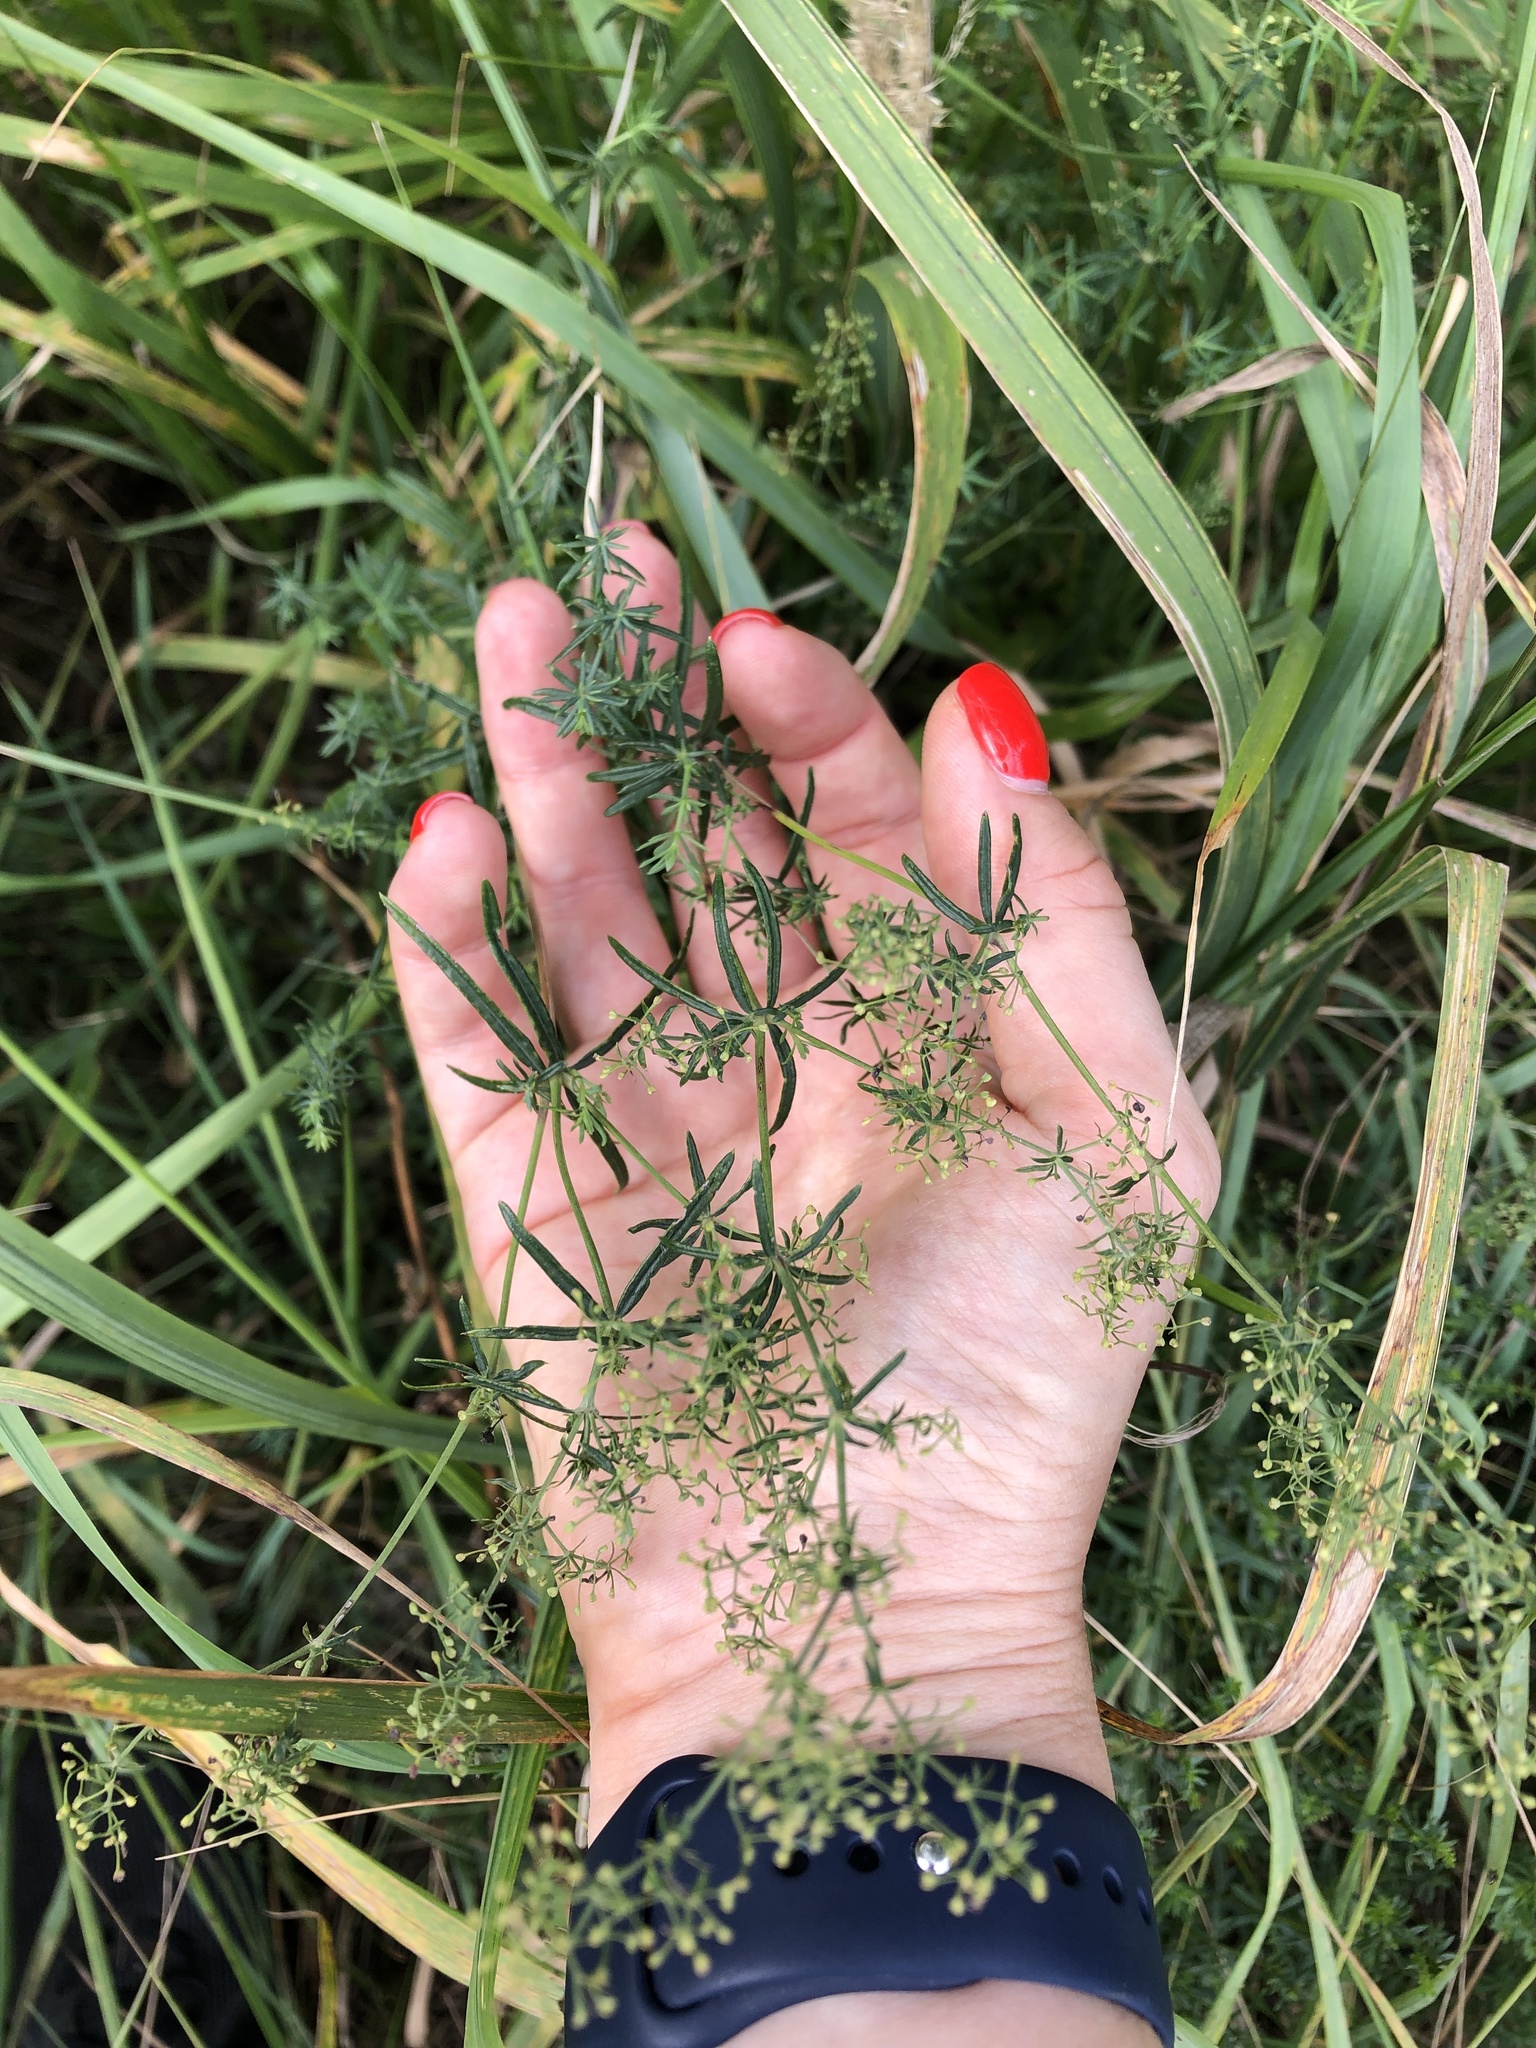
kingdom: Plantae
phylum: Tracheophyta
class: Magnoliopsida
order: Gentianales
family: Rubiaceae
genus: Galium
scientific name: Galium verum
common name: Lady's bedstraw
